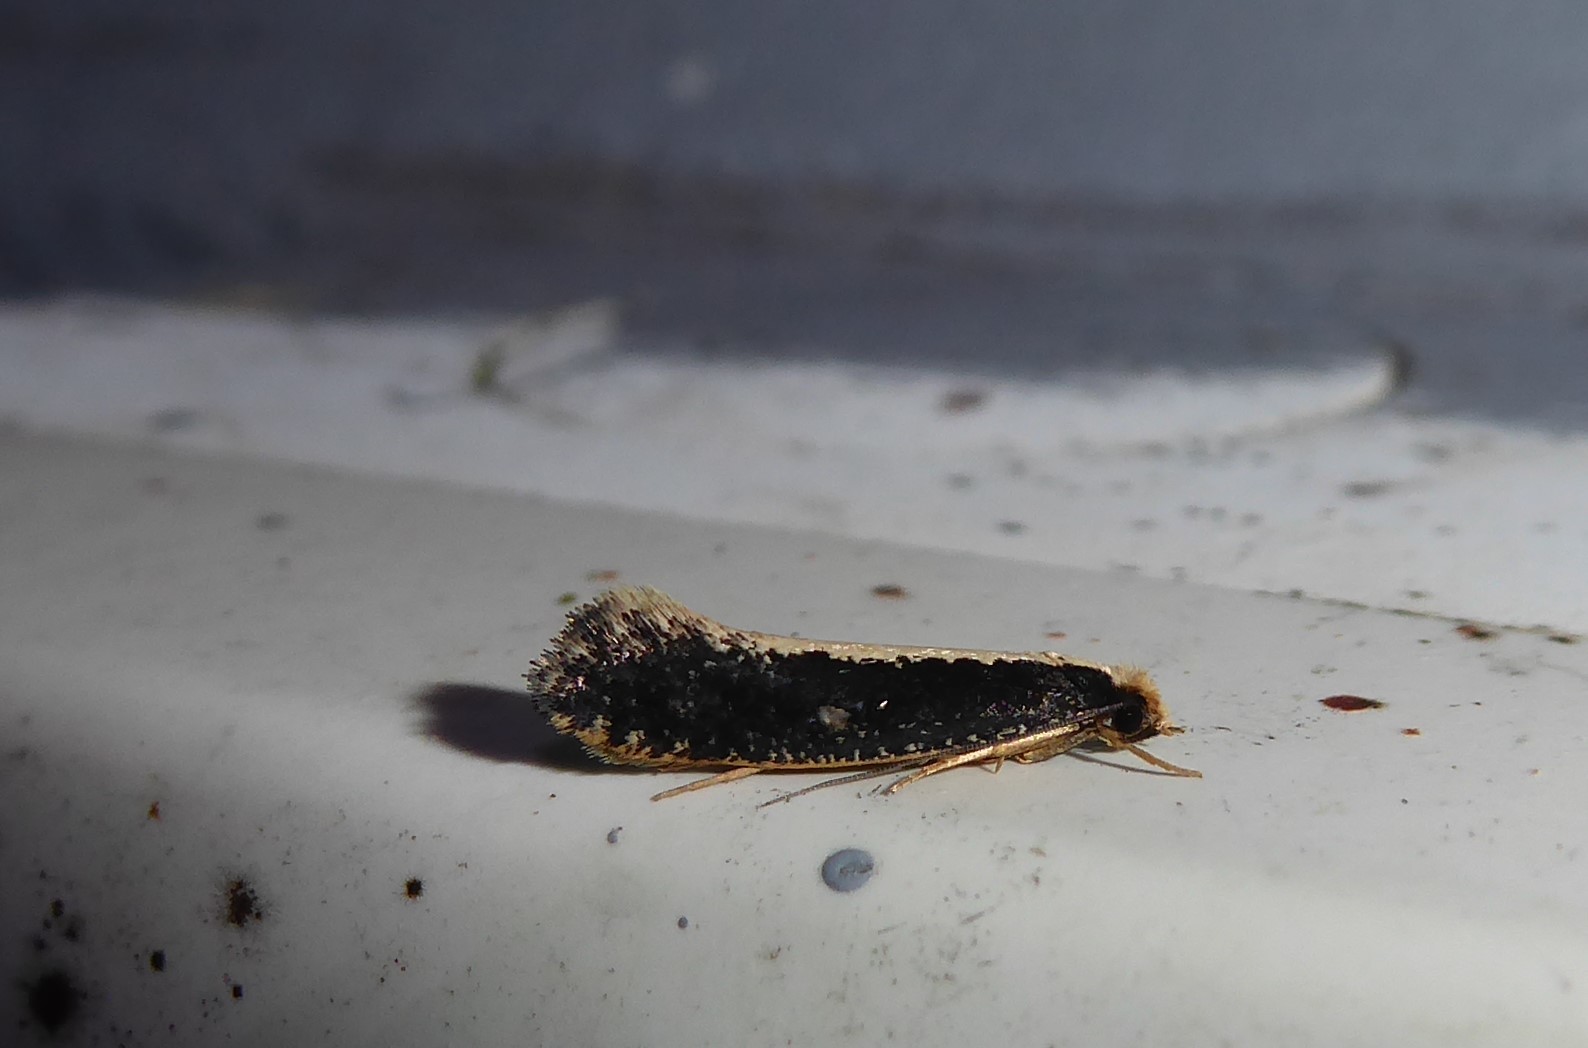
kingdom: Animalia
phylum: Arthropoda
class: Insecta
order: Lepidoptera
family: Tineidae
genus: Monopis
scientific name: Monopis ethelella
